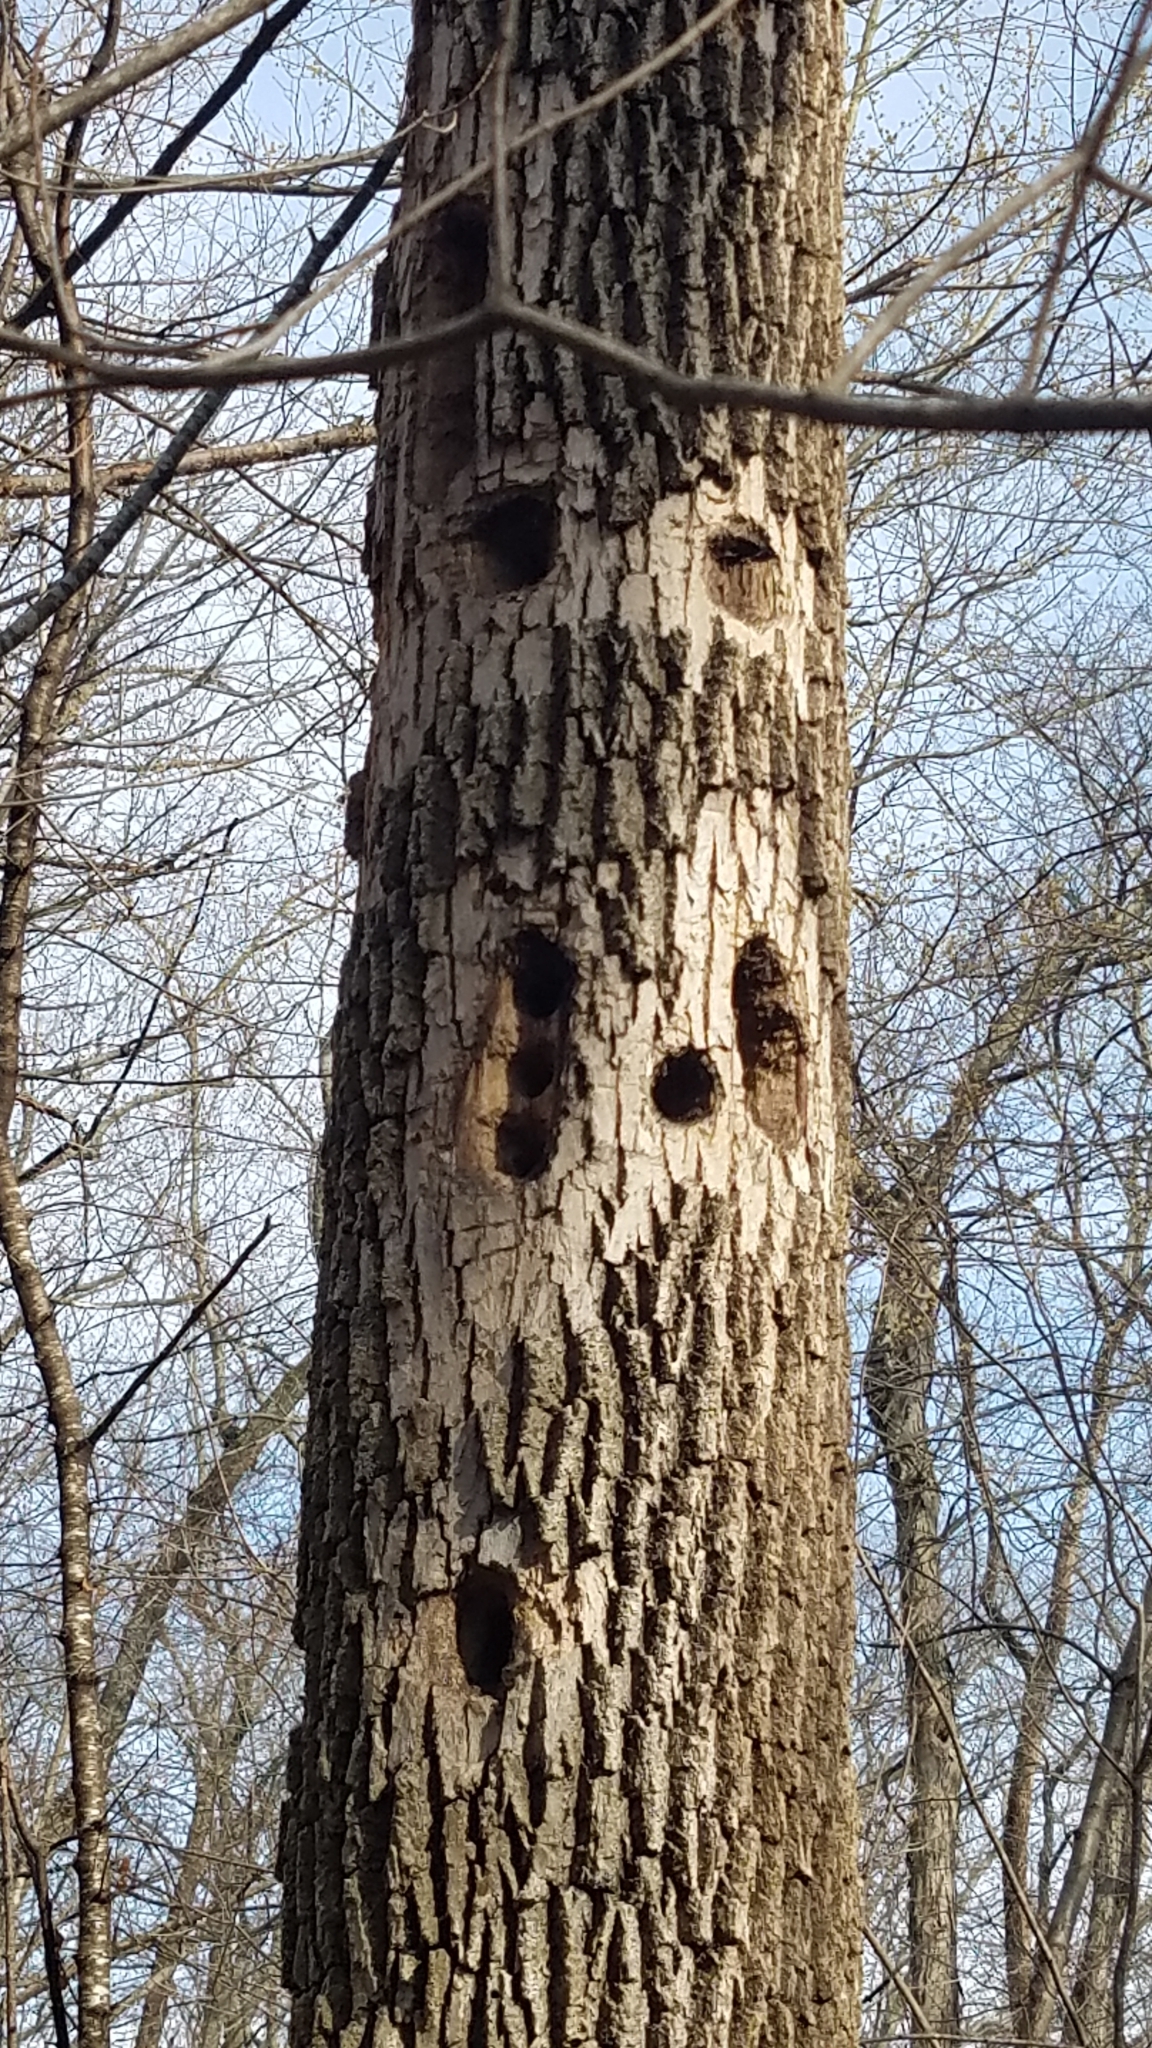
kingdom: Animalia
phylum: Chordata
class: Aves
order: Piciformes
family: Picidae
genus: Dryocopus
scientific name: Dryocopus pileatus
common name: Pileated woodpecker
